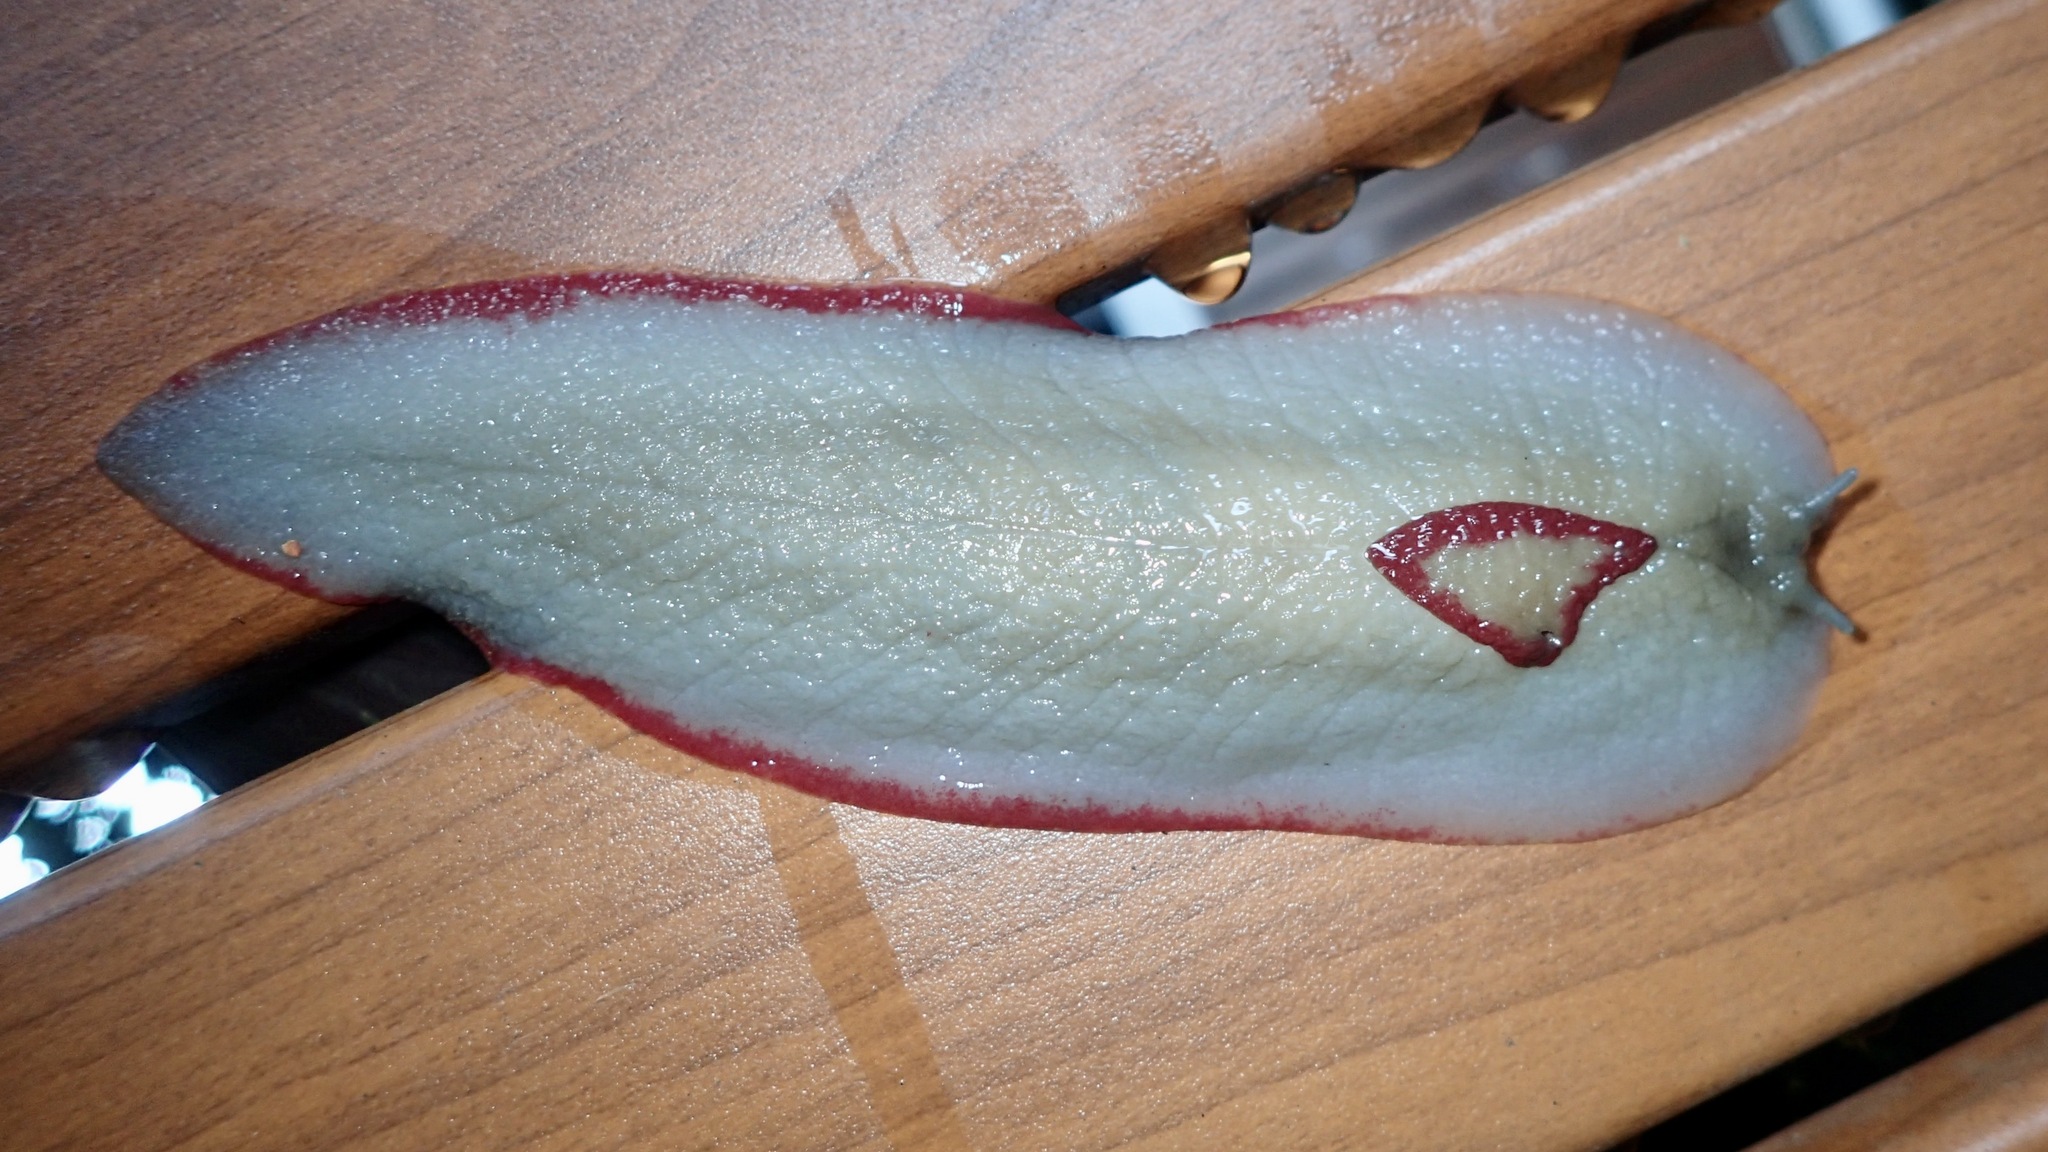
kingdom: Animalia
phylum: Mollusca
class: Gastropoda
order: Stylommatophora
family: Athoracophoridae
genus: Triboniophorus
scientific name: Triboniophorus graeffei
